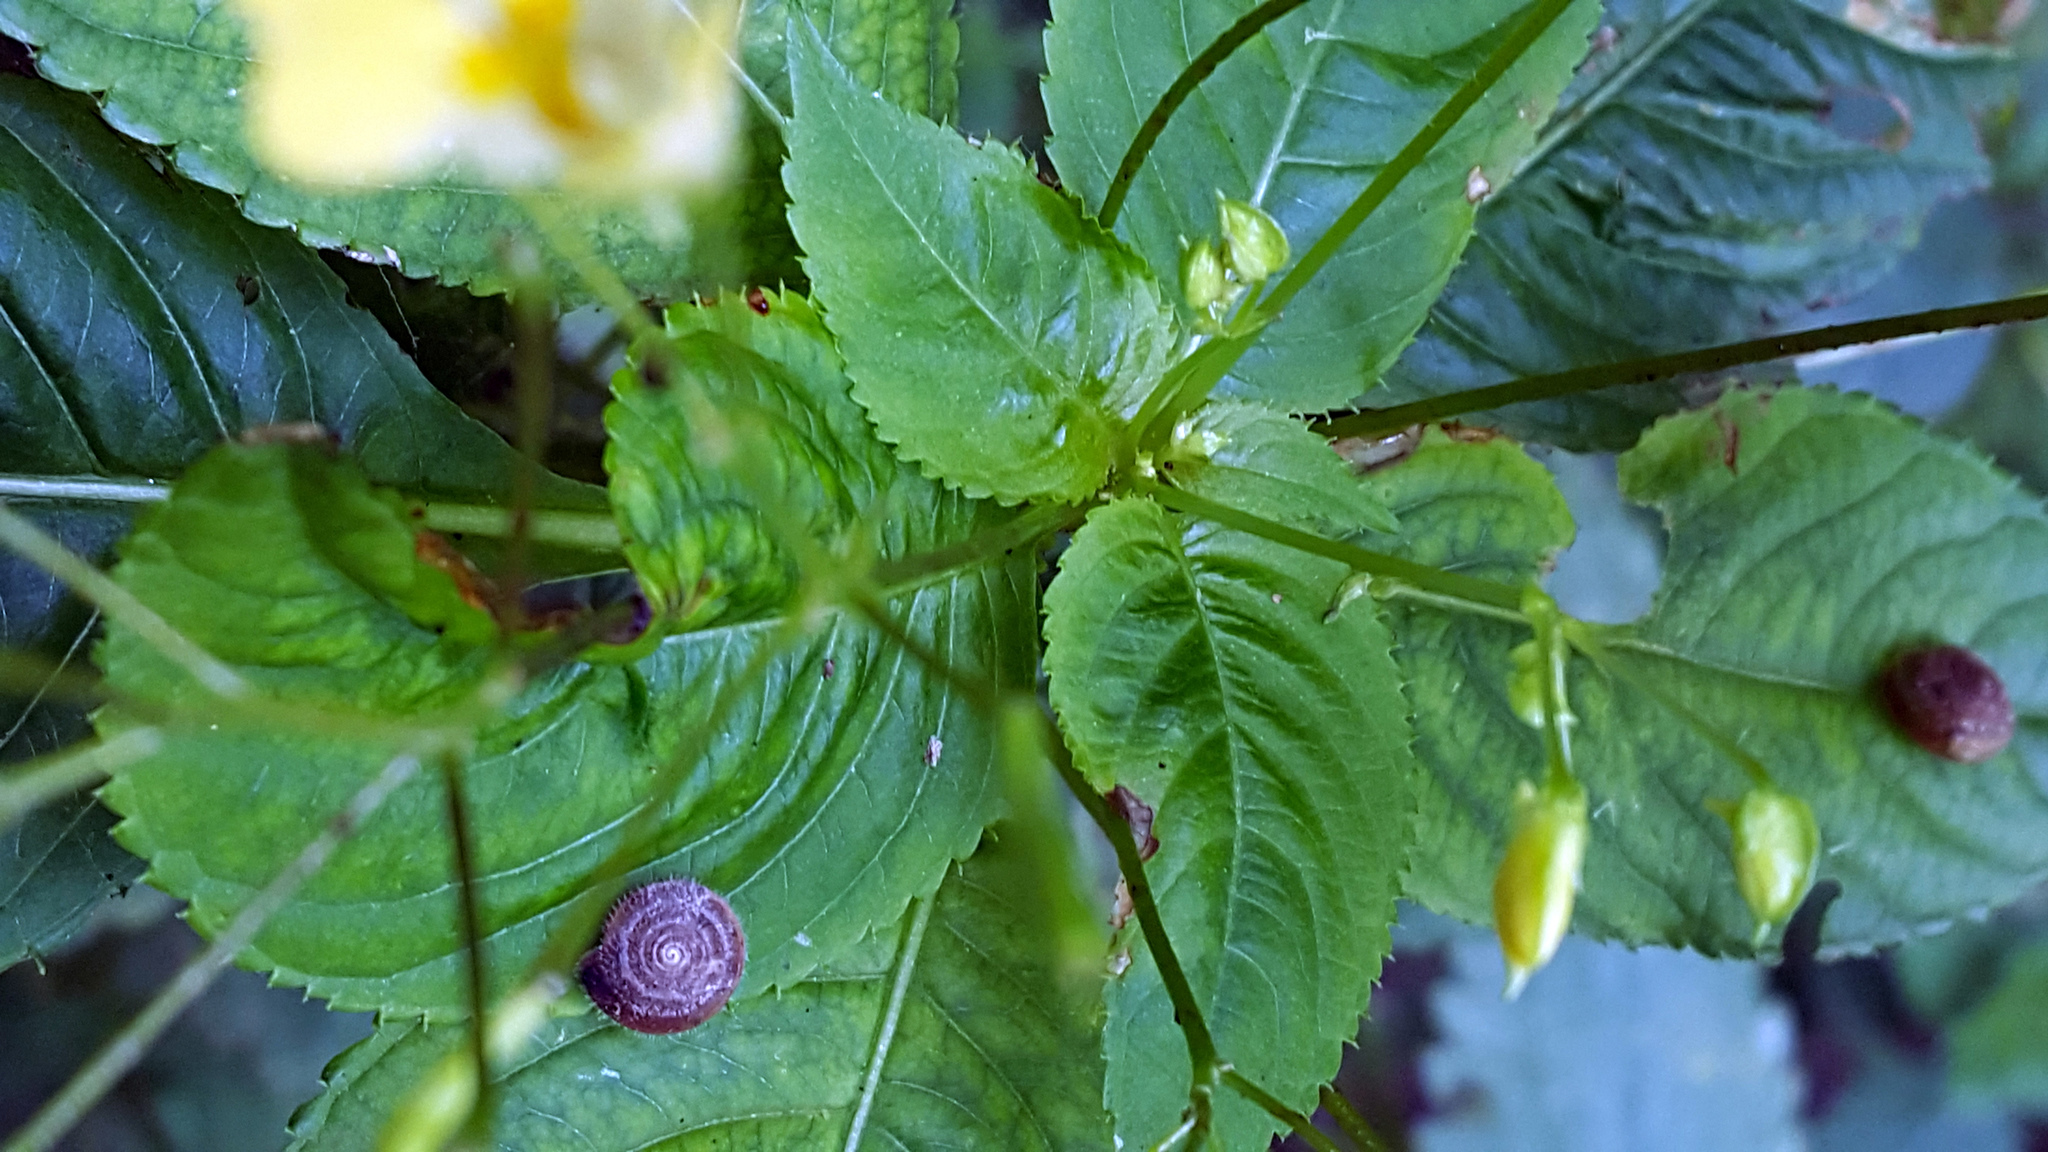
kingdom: Plantae
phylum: Tracheophyta
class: Magnoliopsida
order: Ericales
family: Balsaminaceae
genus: Impatiens
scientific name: Impatiens parviflora
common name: Small balsam
